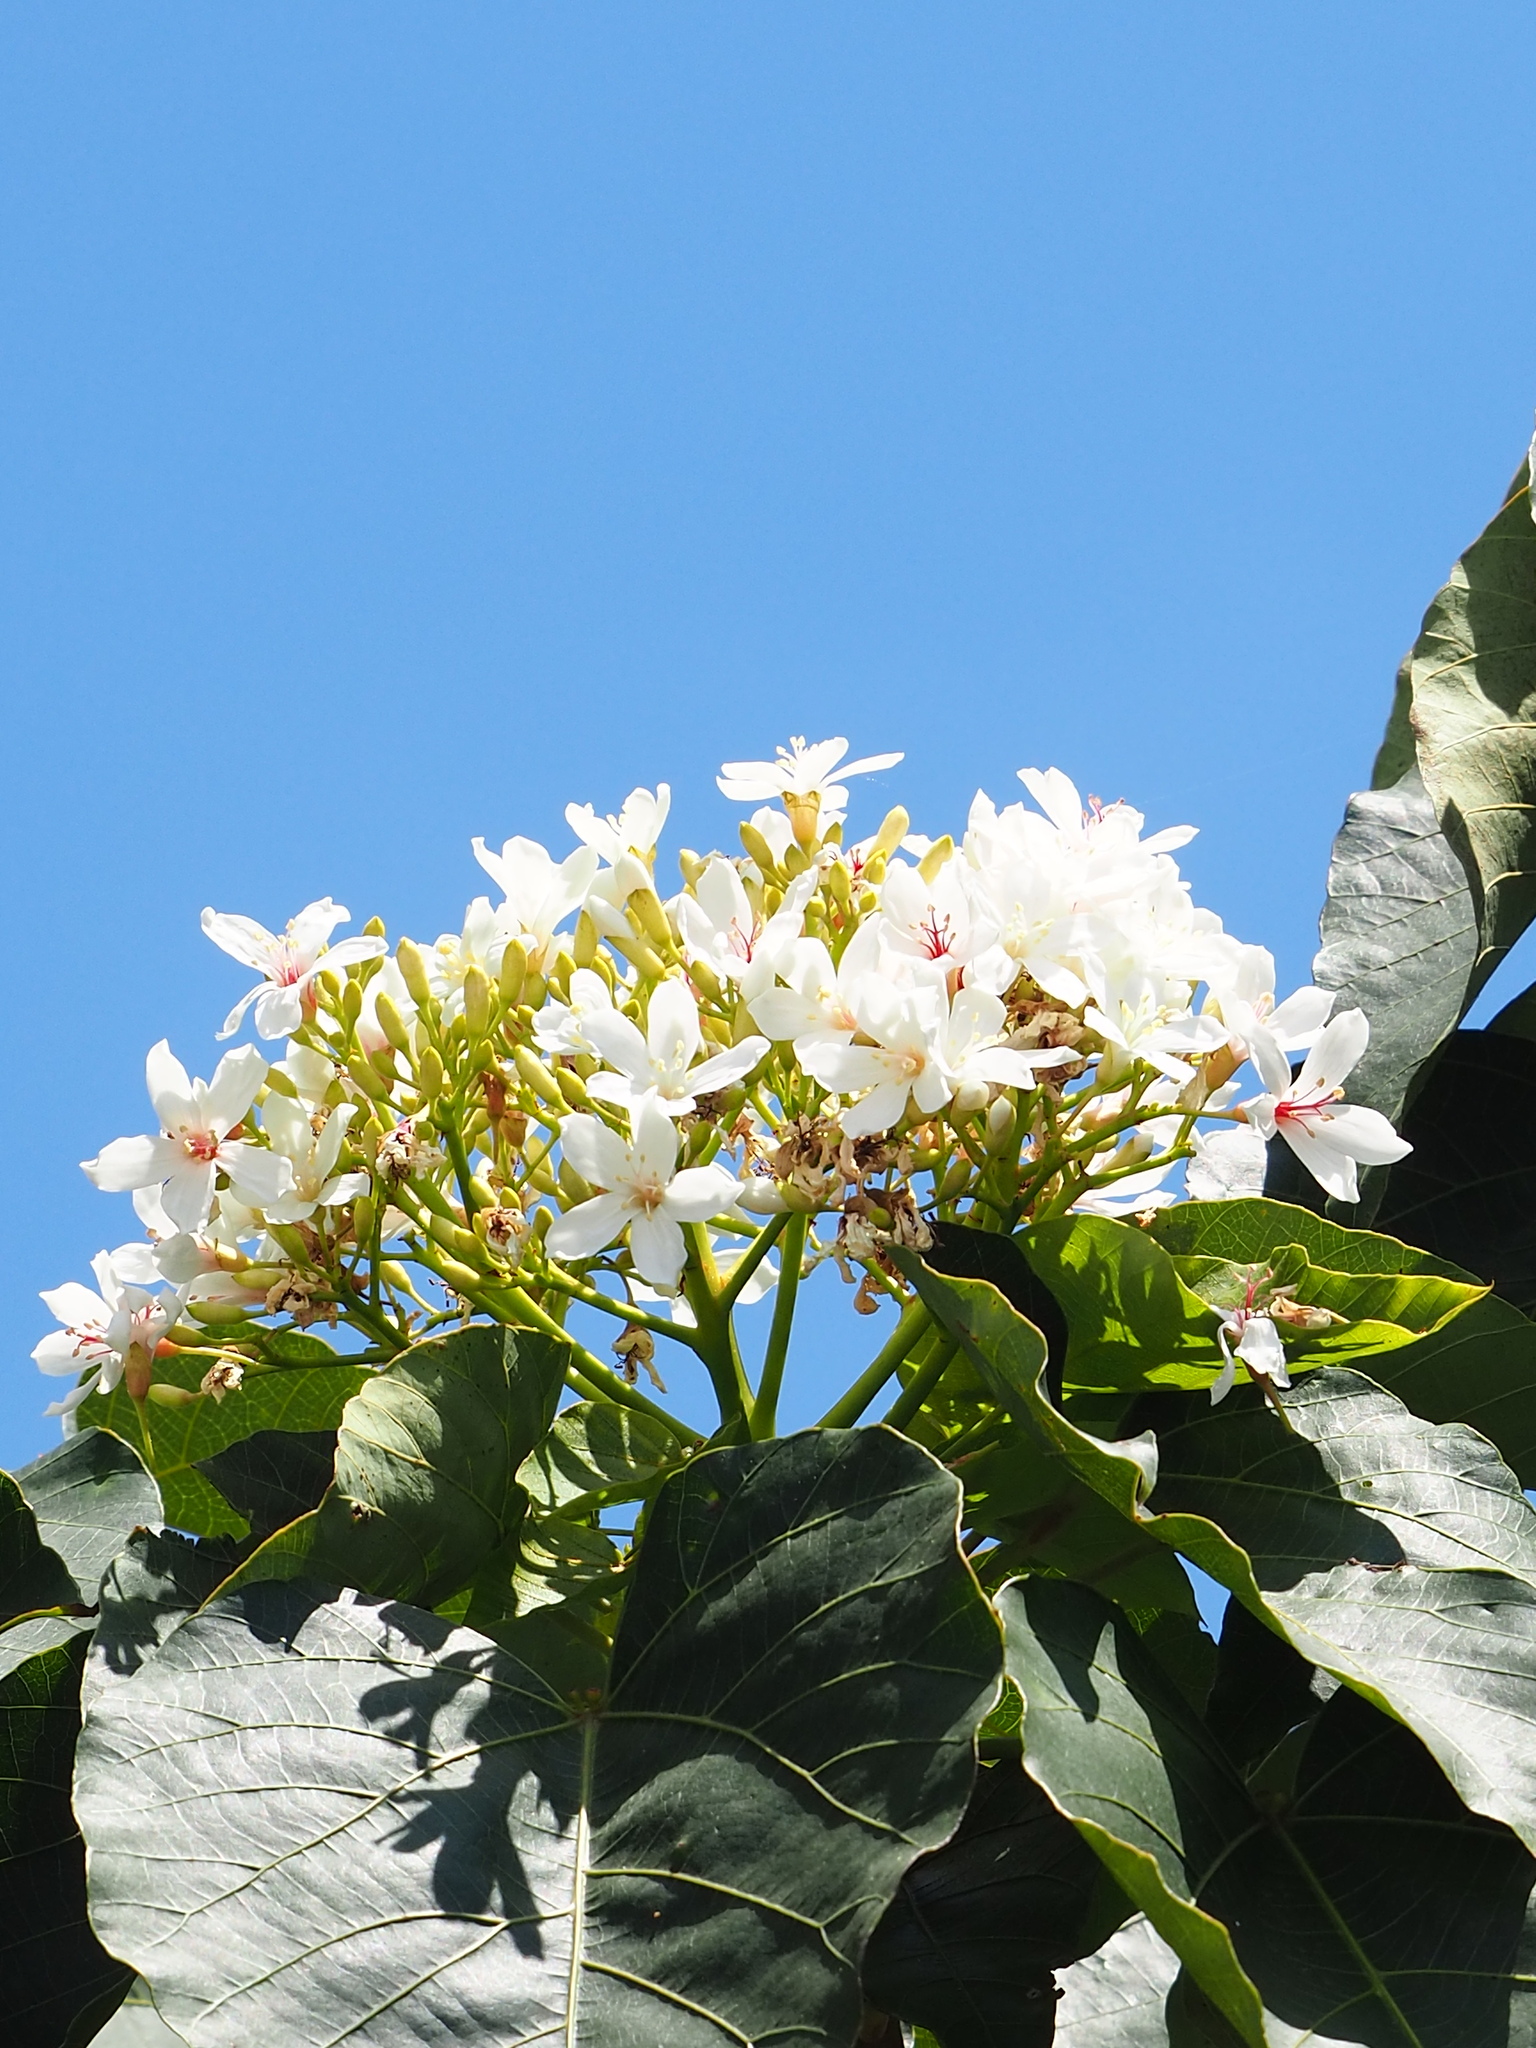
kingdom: Plantae
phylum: Tracheophyta
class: Magnoliopsida
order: Malpighiales
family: Euphorbiaceae
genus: Vernicia
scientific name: Vernicia montana
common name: Mu oil tree
